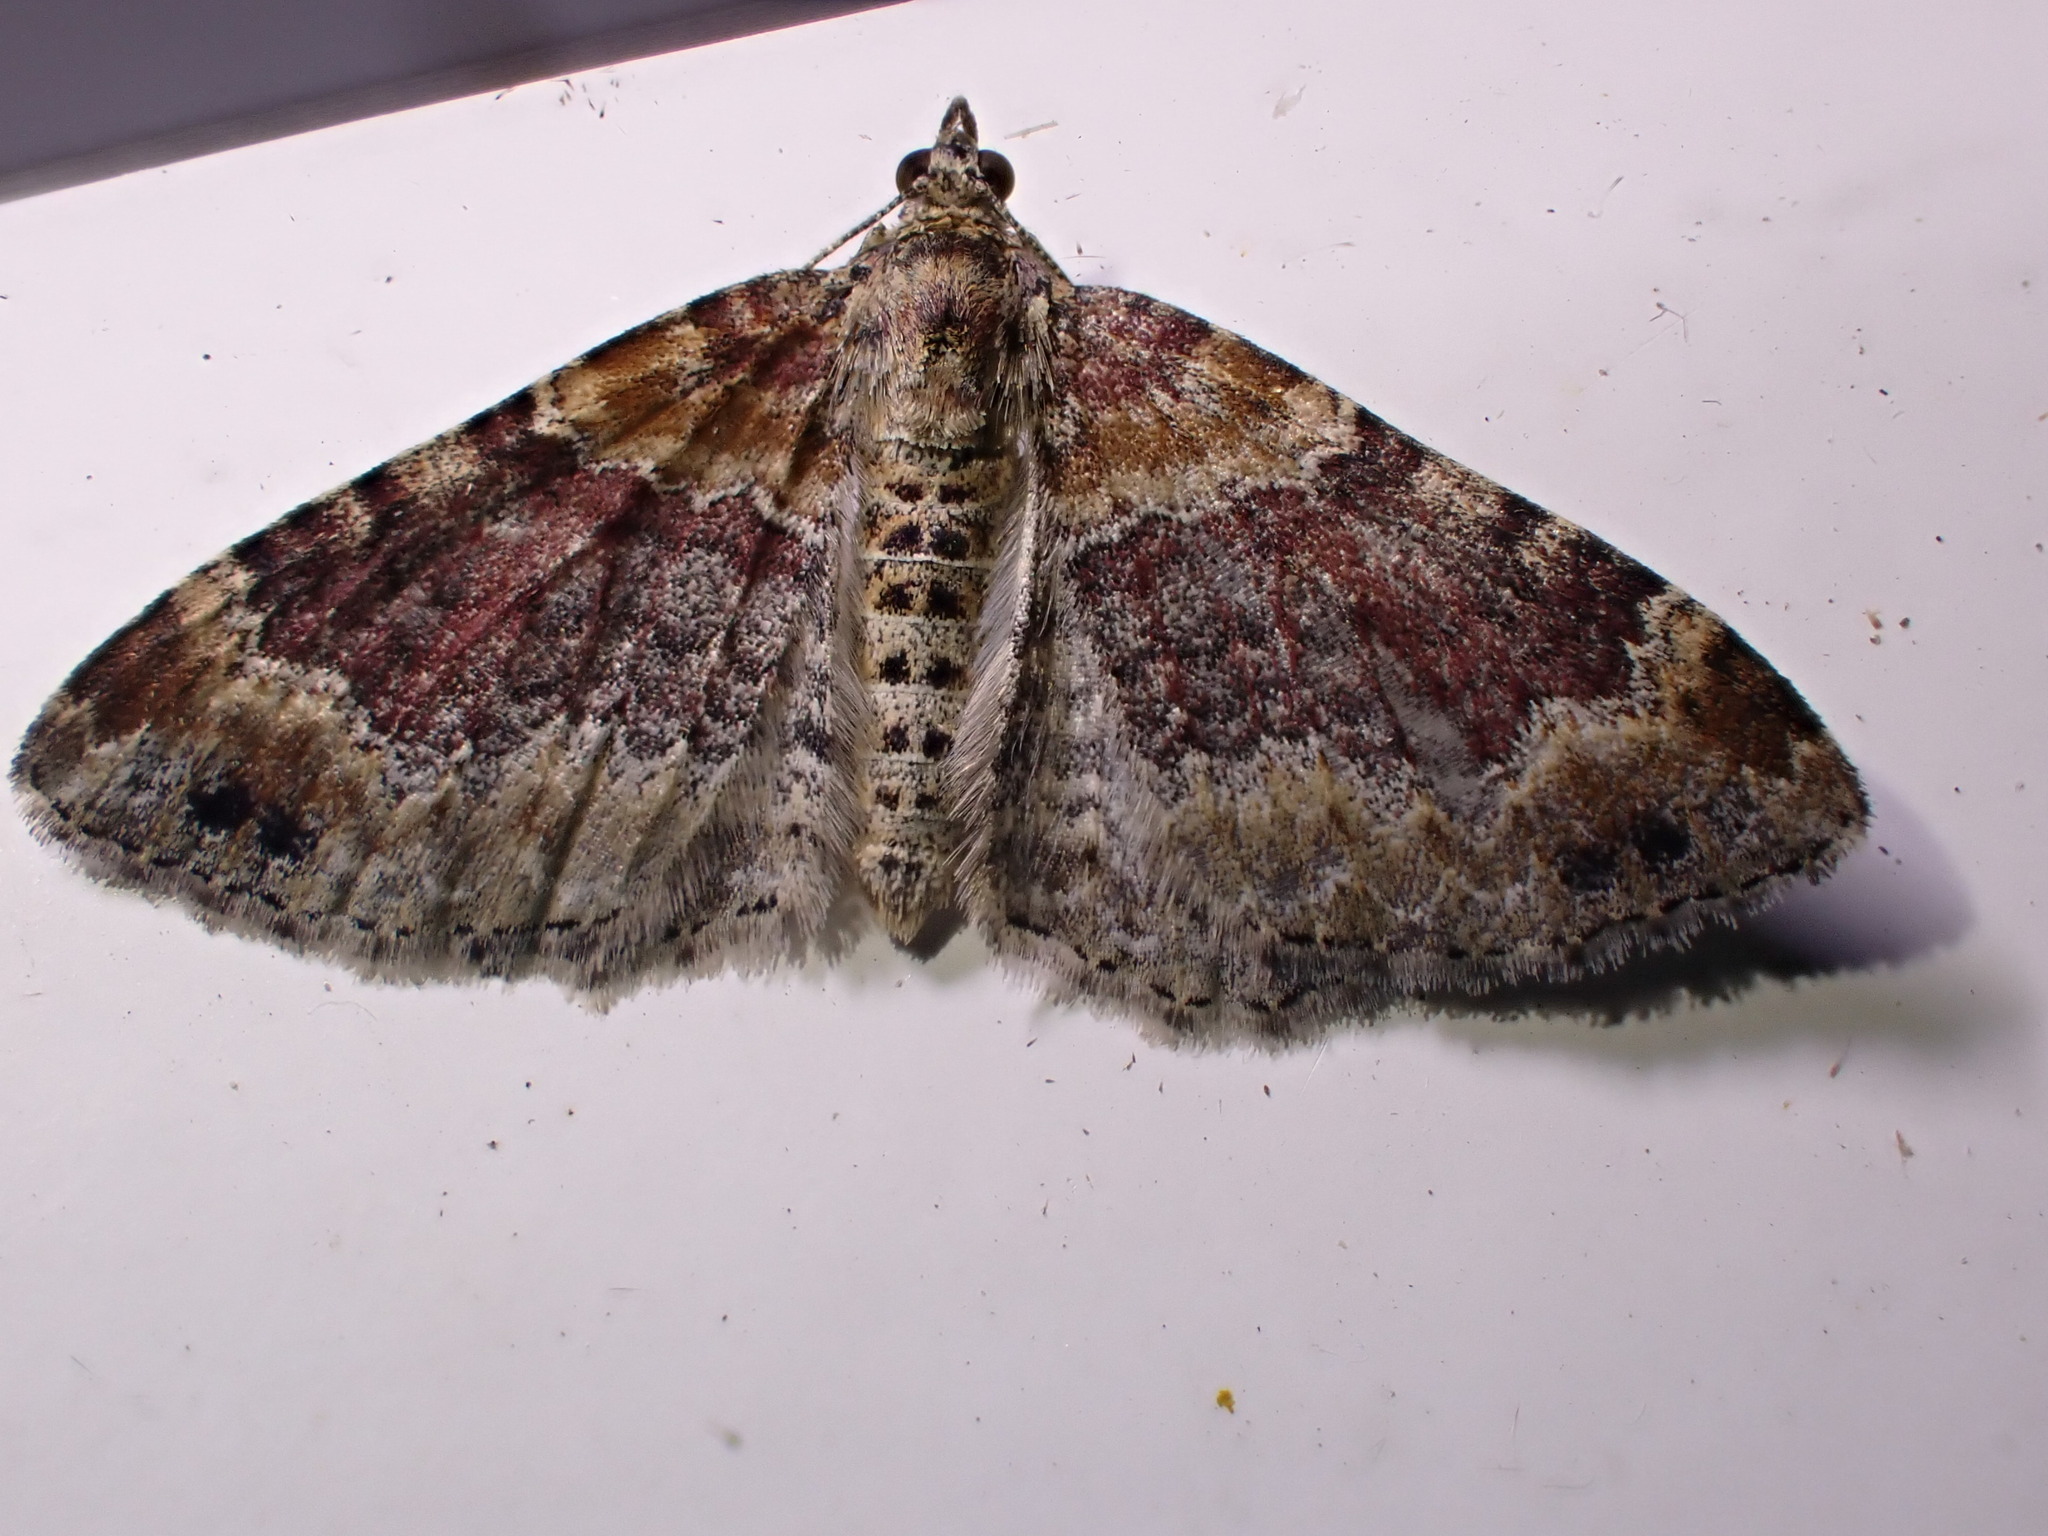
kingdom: Animalia
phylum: Arthropoda
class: Insecta
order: Lepidoptera
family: Geometridae
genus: Xanthorhoe
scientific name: Xanthorhoe spadicearia
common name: Red twin-spot carpet
